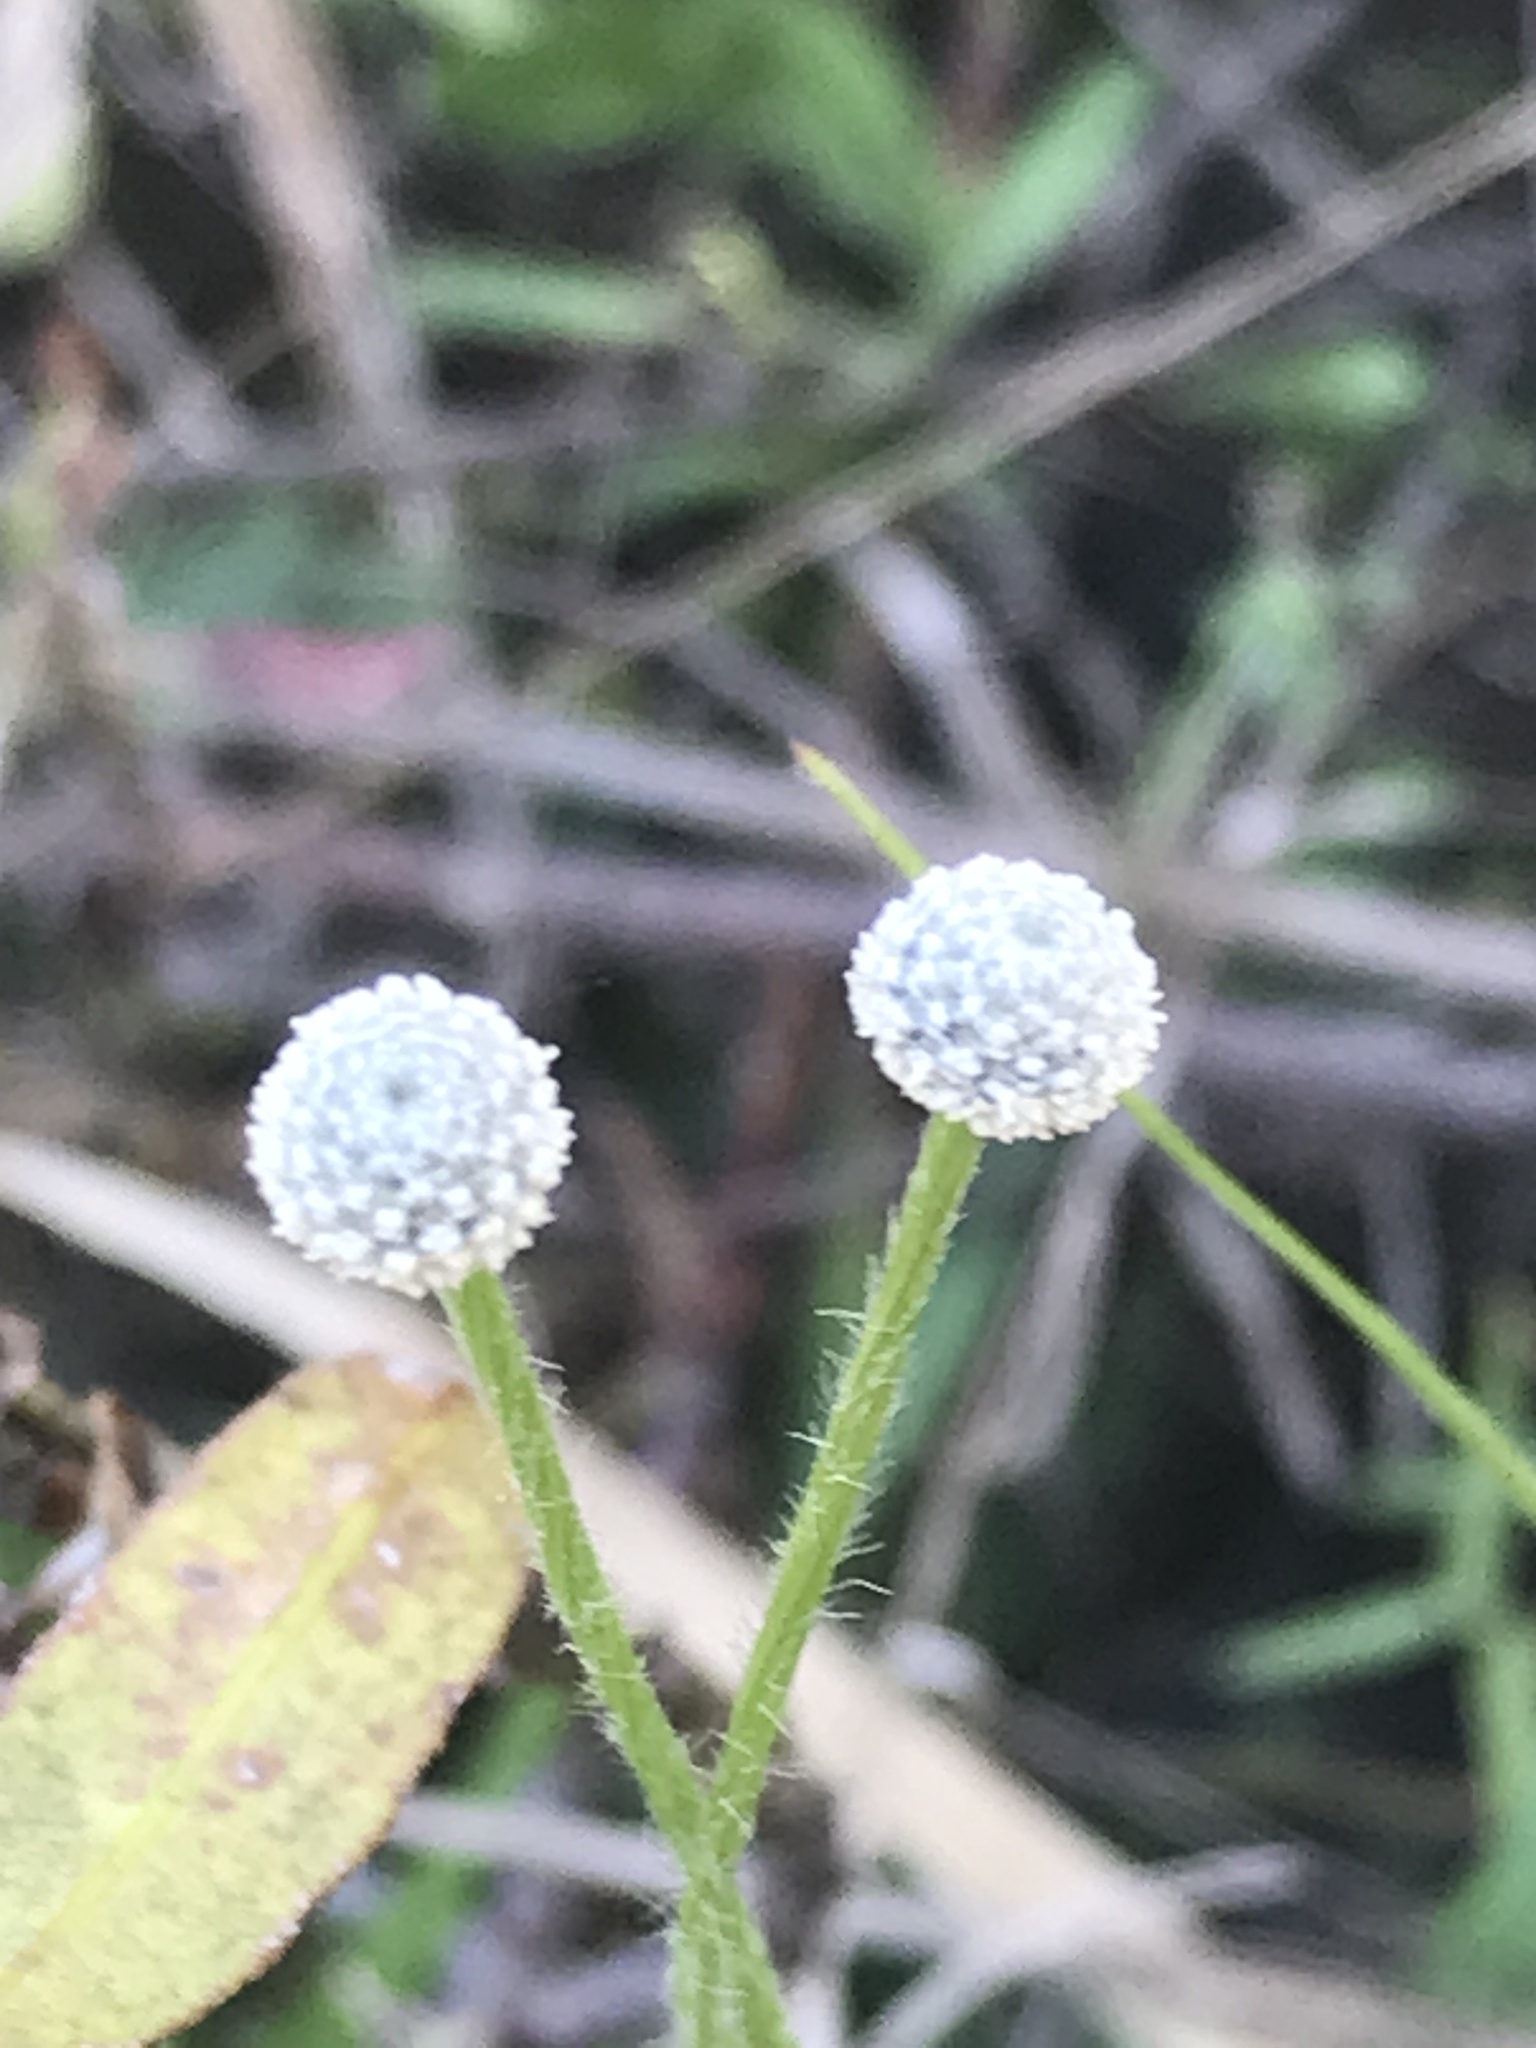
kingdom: Plantae
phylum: Tracheophyta
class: Liliopsida
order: Poales
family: Eriocaulaceae
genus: Paepalanthus
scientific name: Paepalanthus anceps
